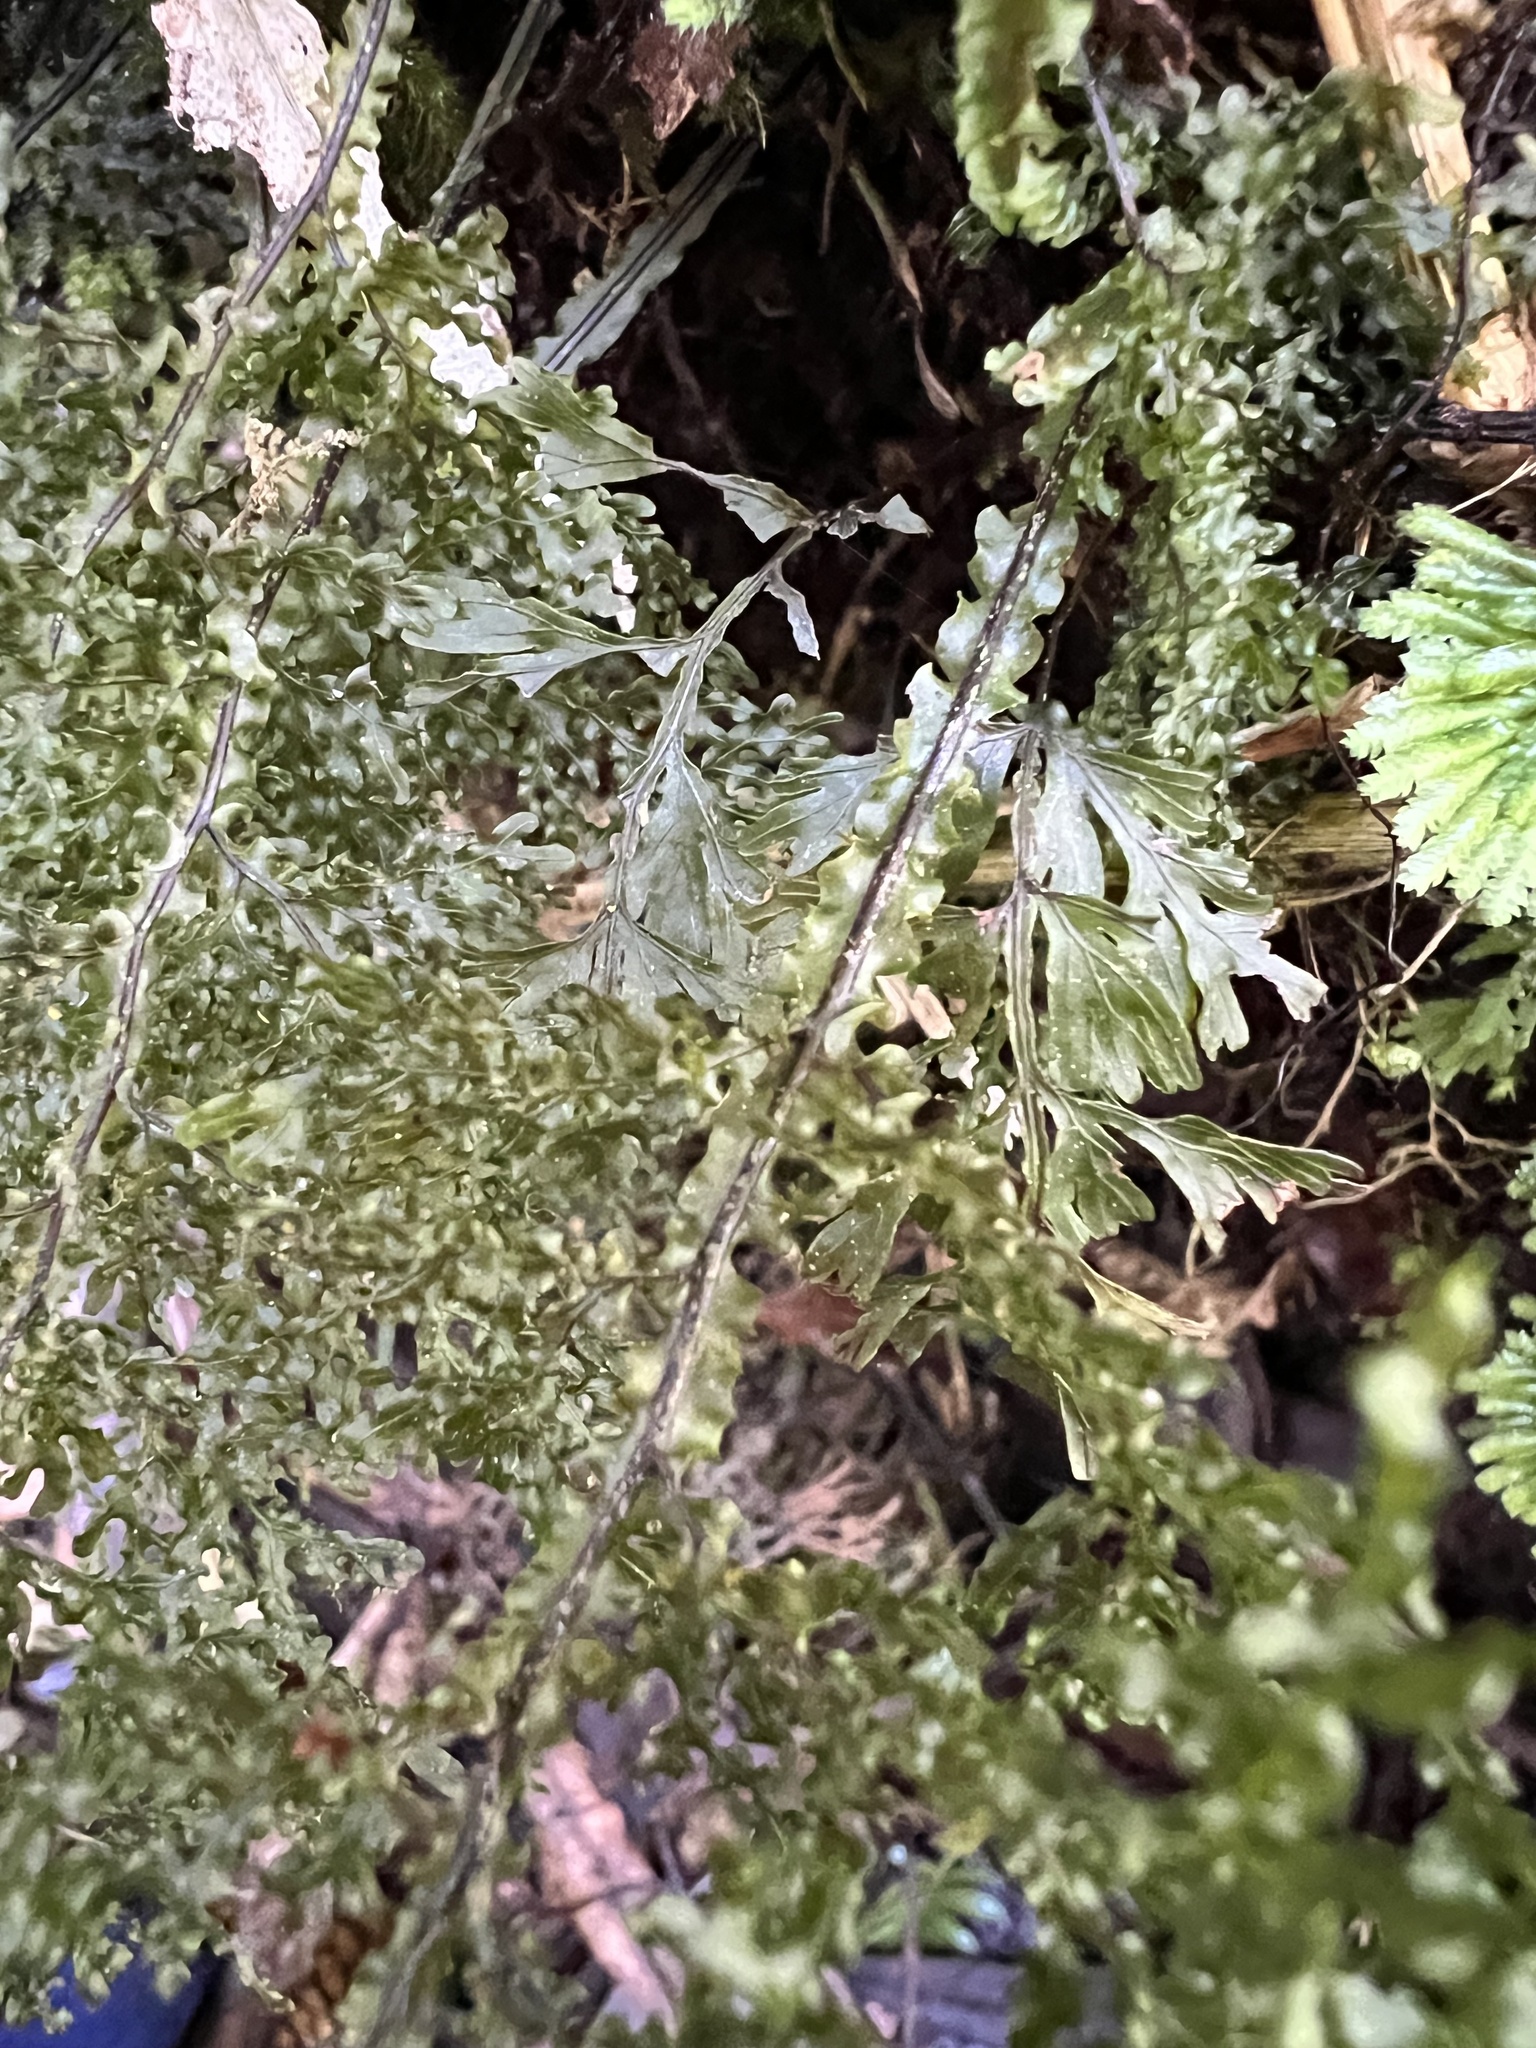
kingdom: Plantae
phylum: Tracheophyta
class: Polypodiopsida
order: Hymenophyllales
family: Hymenophyllaceae
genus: Hymenophyllum
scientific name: Hymenophyllum flexuosum
